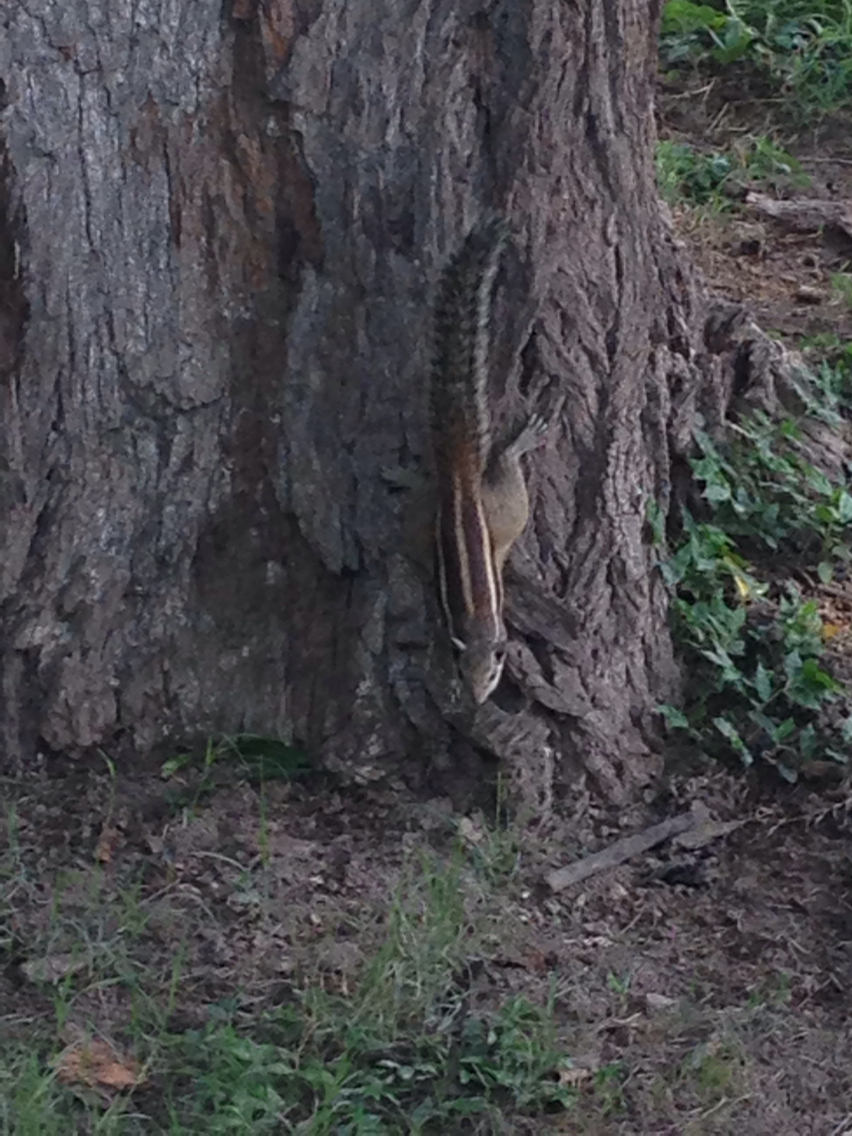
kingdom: Animalia
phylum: Chordata
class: Mammalia
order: Rodentia
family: Sciuridae
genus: Funambulus
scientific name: Funambulus pennantii
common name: Northern palm squirrel
